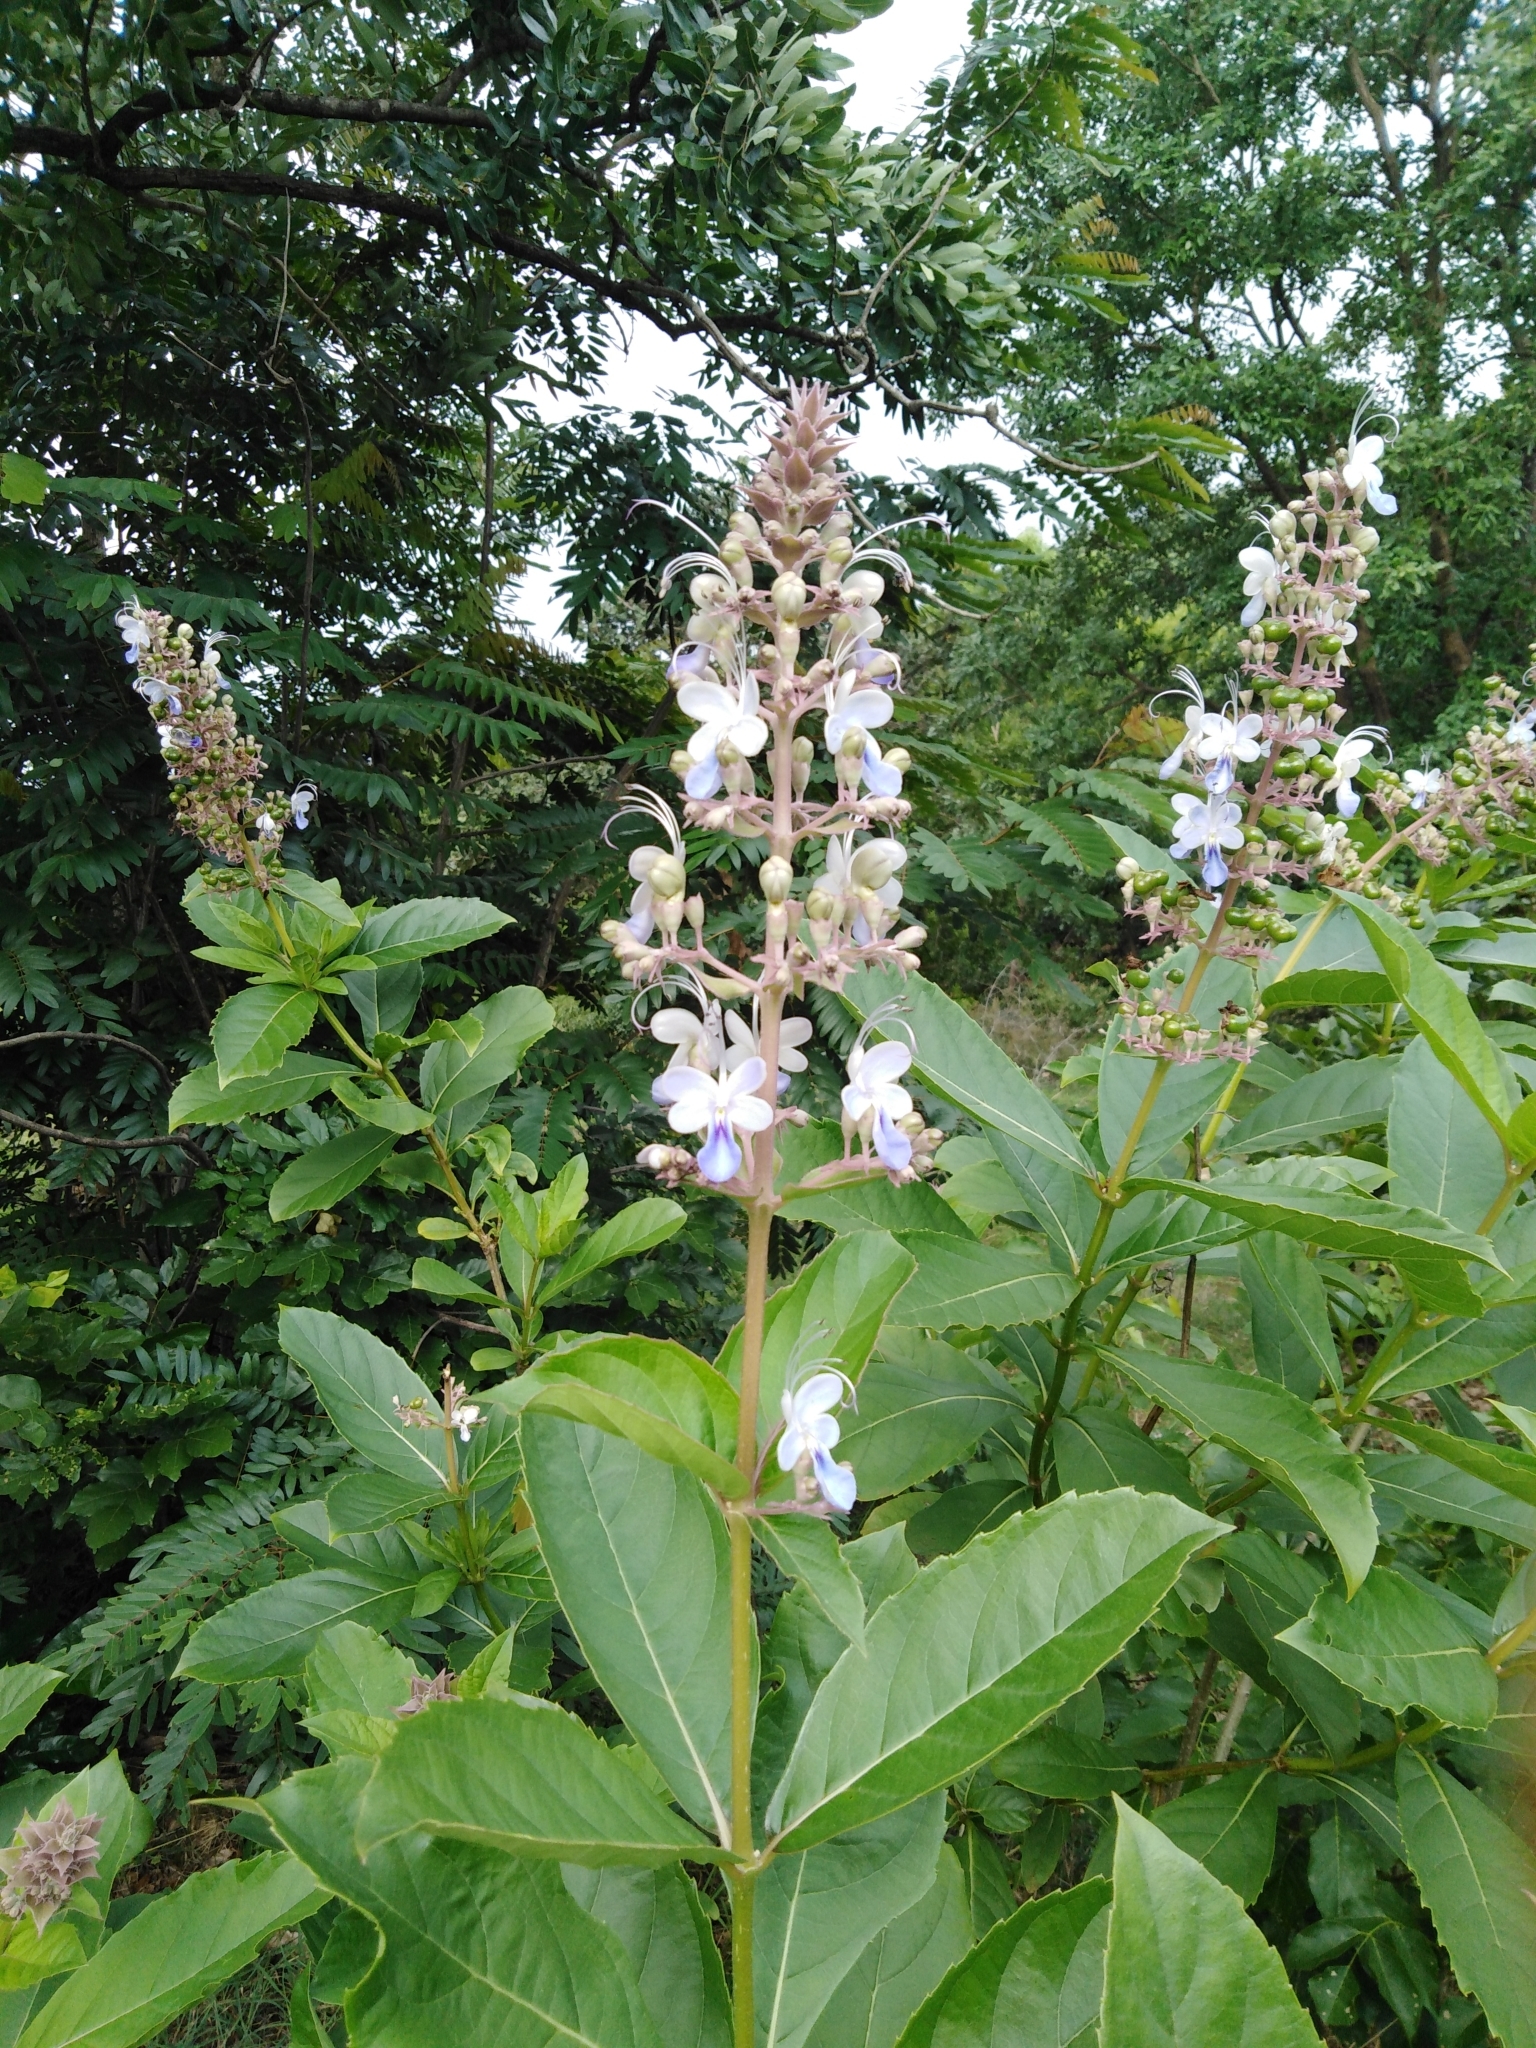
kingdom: Plantae
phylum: Tracheophyta
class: Magnoliopsida
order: Lamiales
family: Lamiaceae
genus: Rotheca
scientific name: Rotheca serrata
